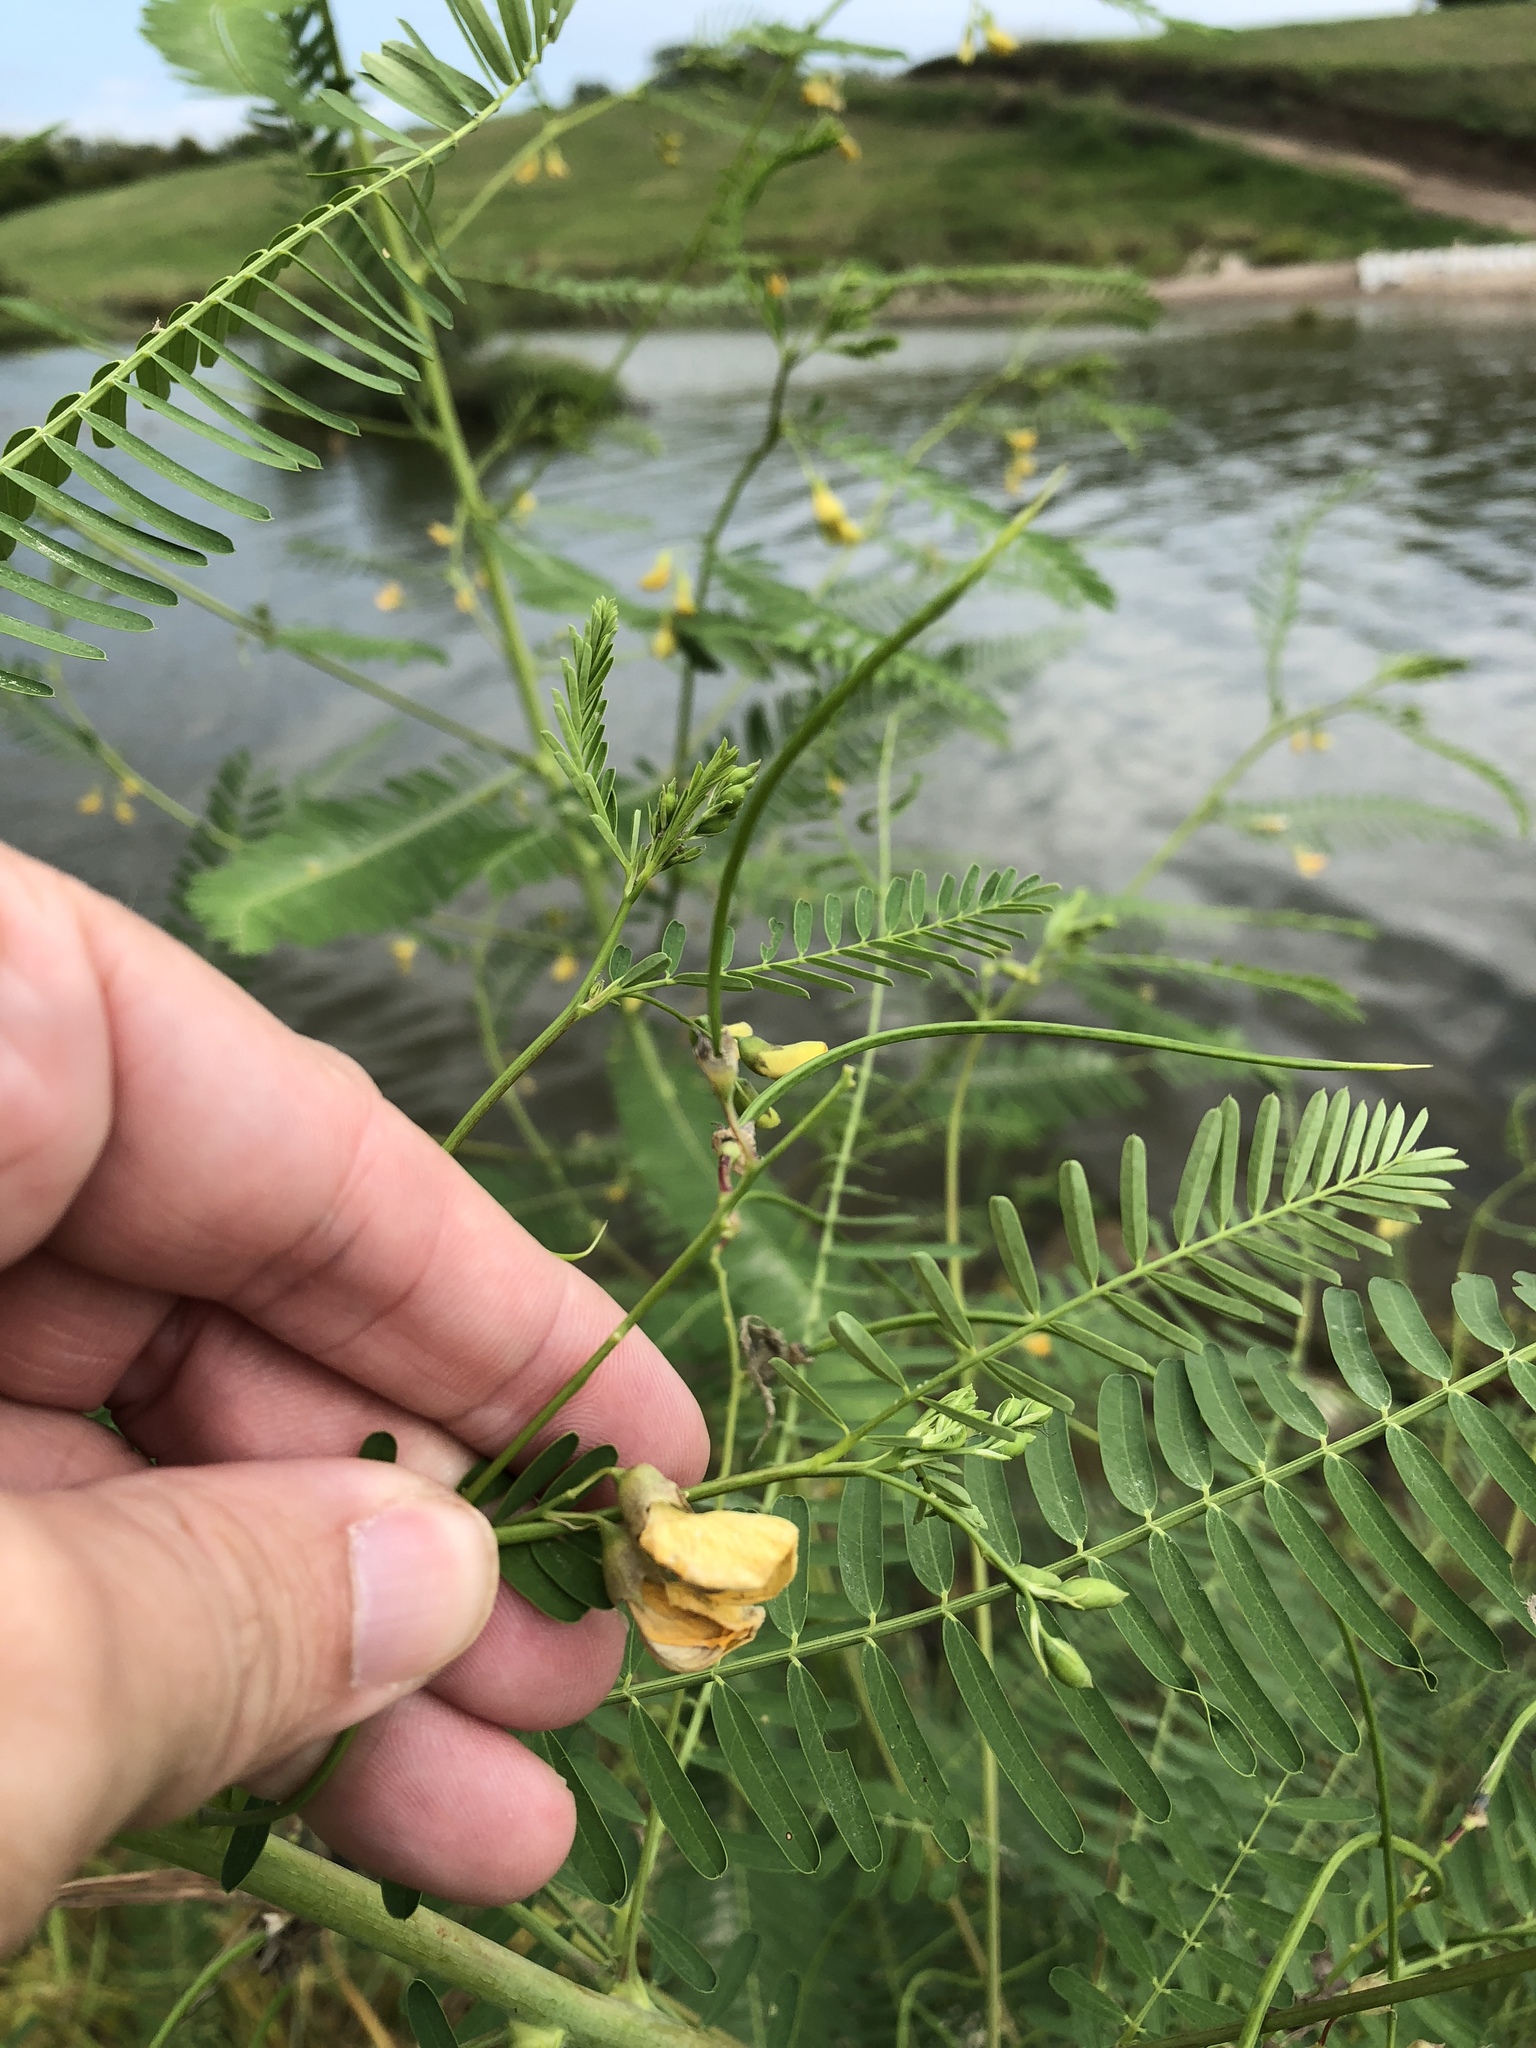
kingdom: Plantae
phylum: Tracheophyta
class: Magnoliopsida
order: Fabales
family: Fabaceae
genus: Sesbania
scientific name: Sesbania herbacea
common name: Bigpod sesbania
